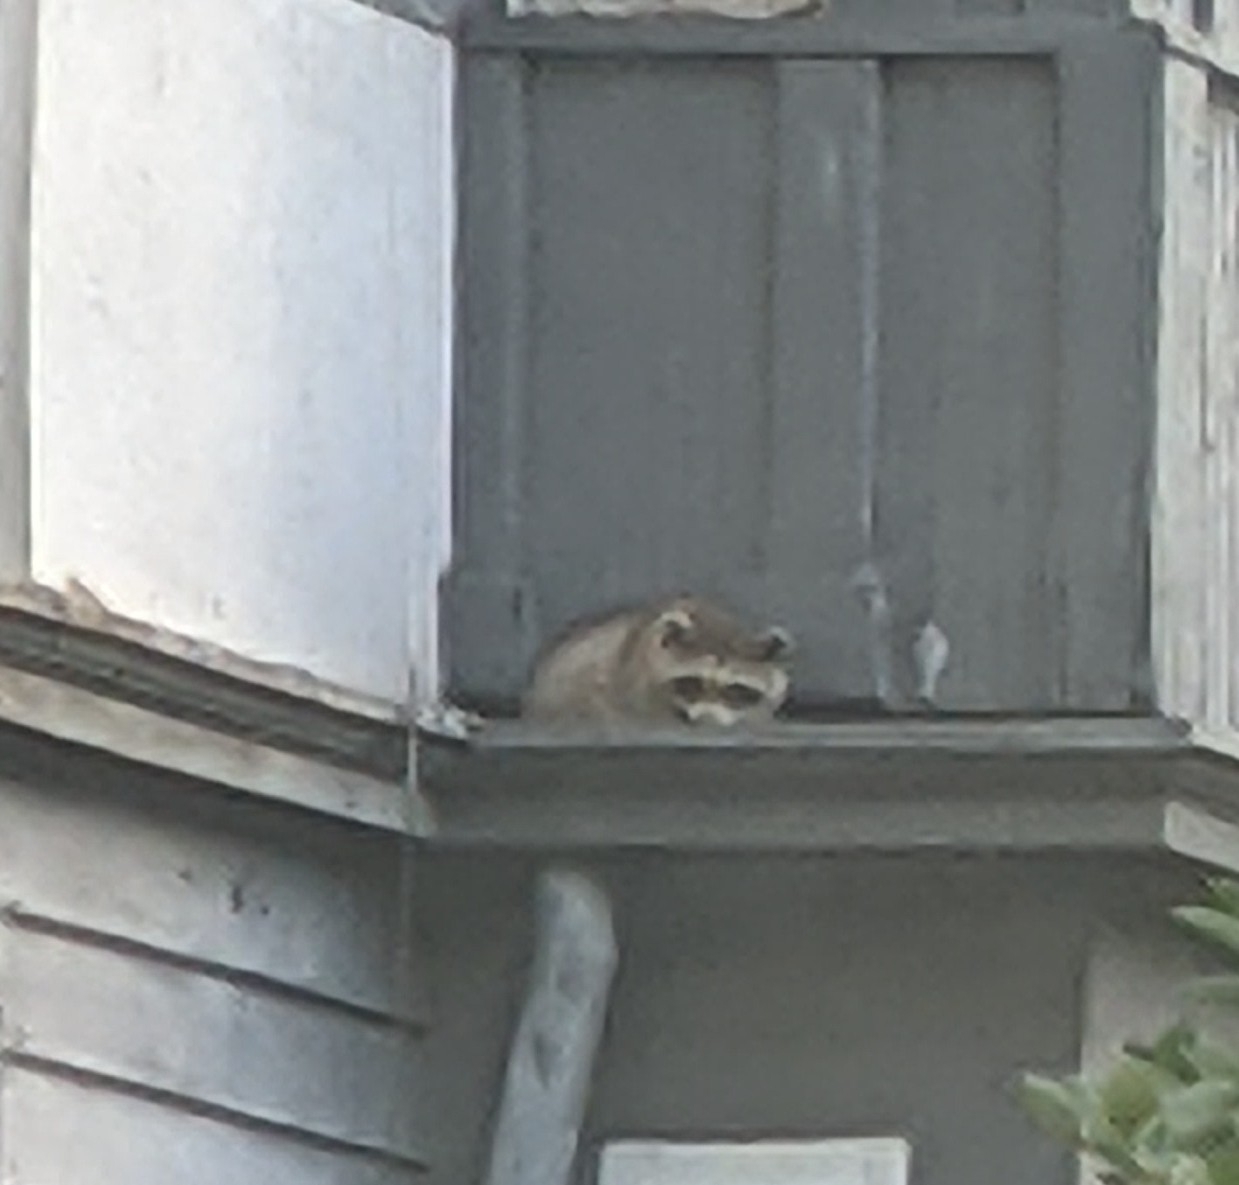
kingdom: Animalia
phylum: Chordata
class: Mammalia
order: Carnivora
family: Procyonidae
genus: Procyon
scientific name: Procyon lotor
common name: Raccoon
